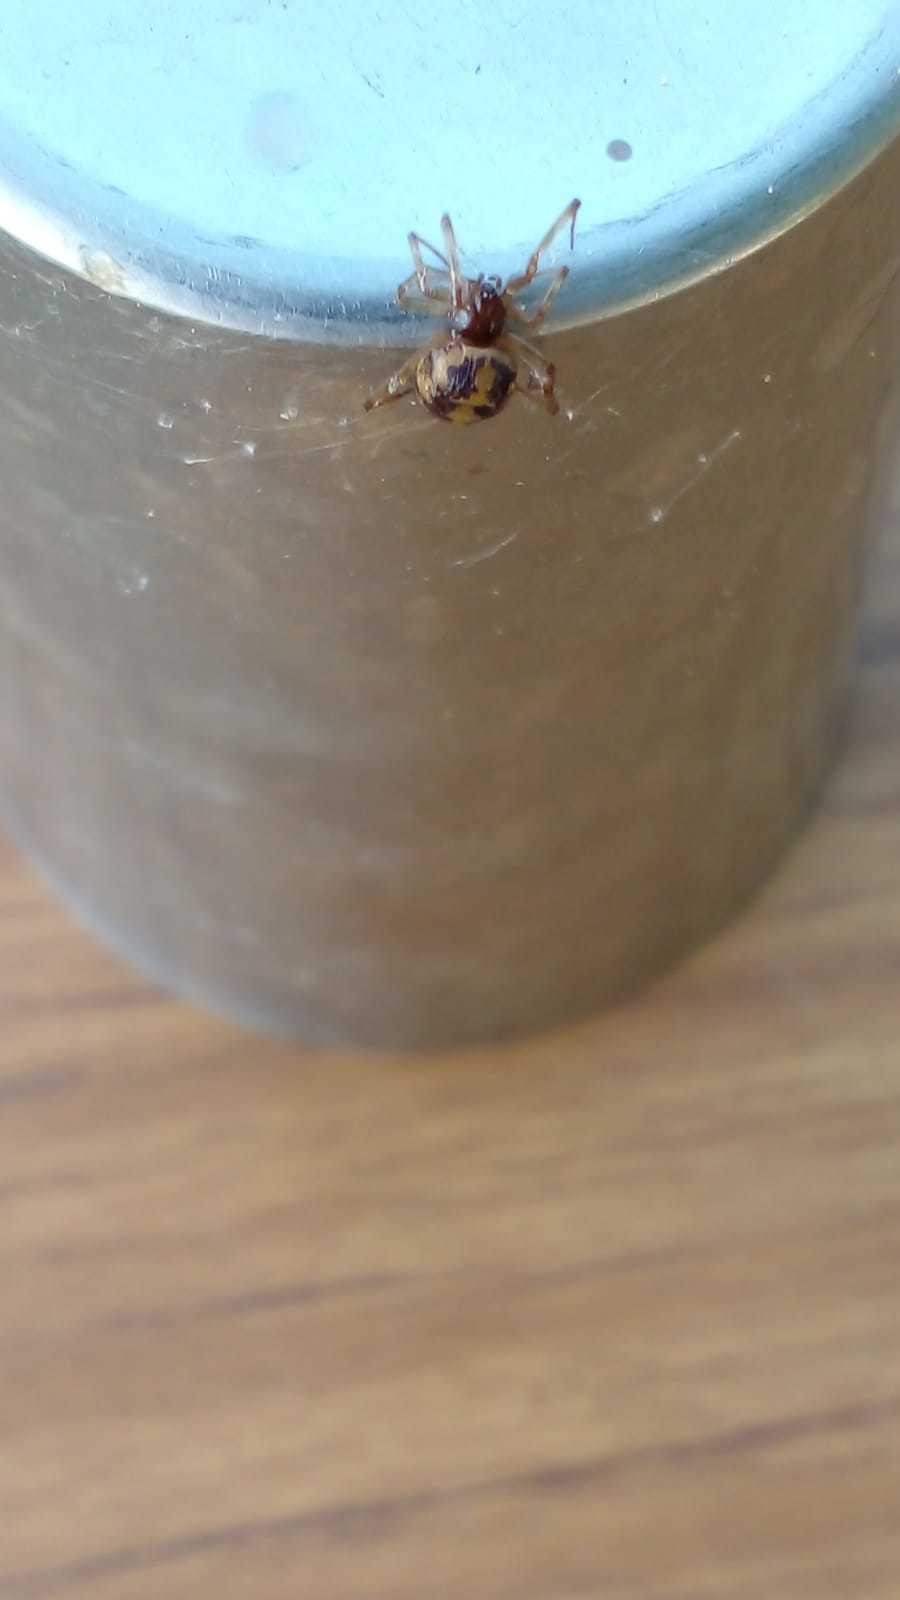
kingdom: Animalia
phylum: Arthropoda
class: Arachnida
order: Araneae
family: Theridiidae
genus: Steatoda
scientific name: Steatoda triangulosa
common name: Triangulate bud spider
